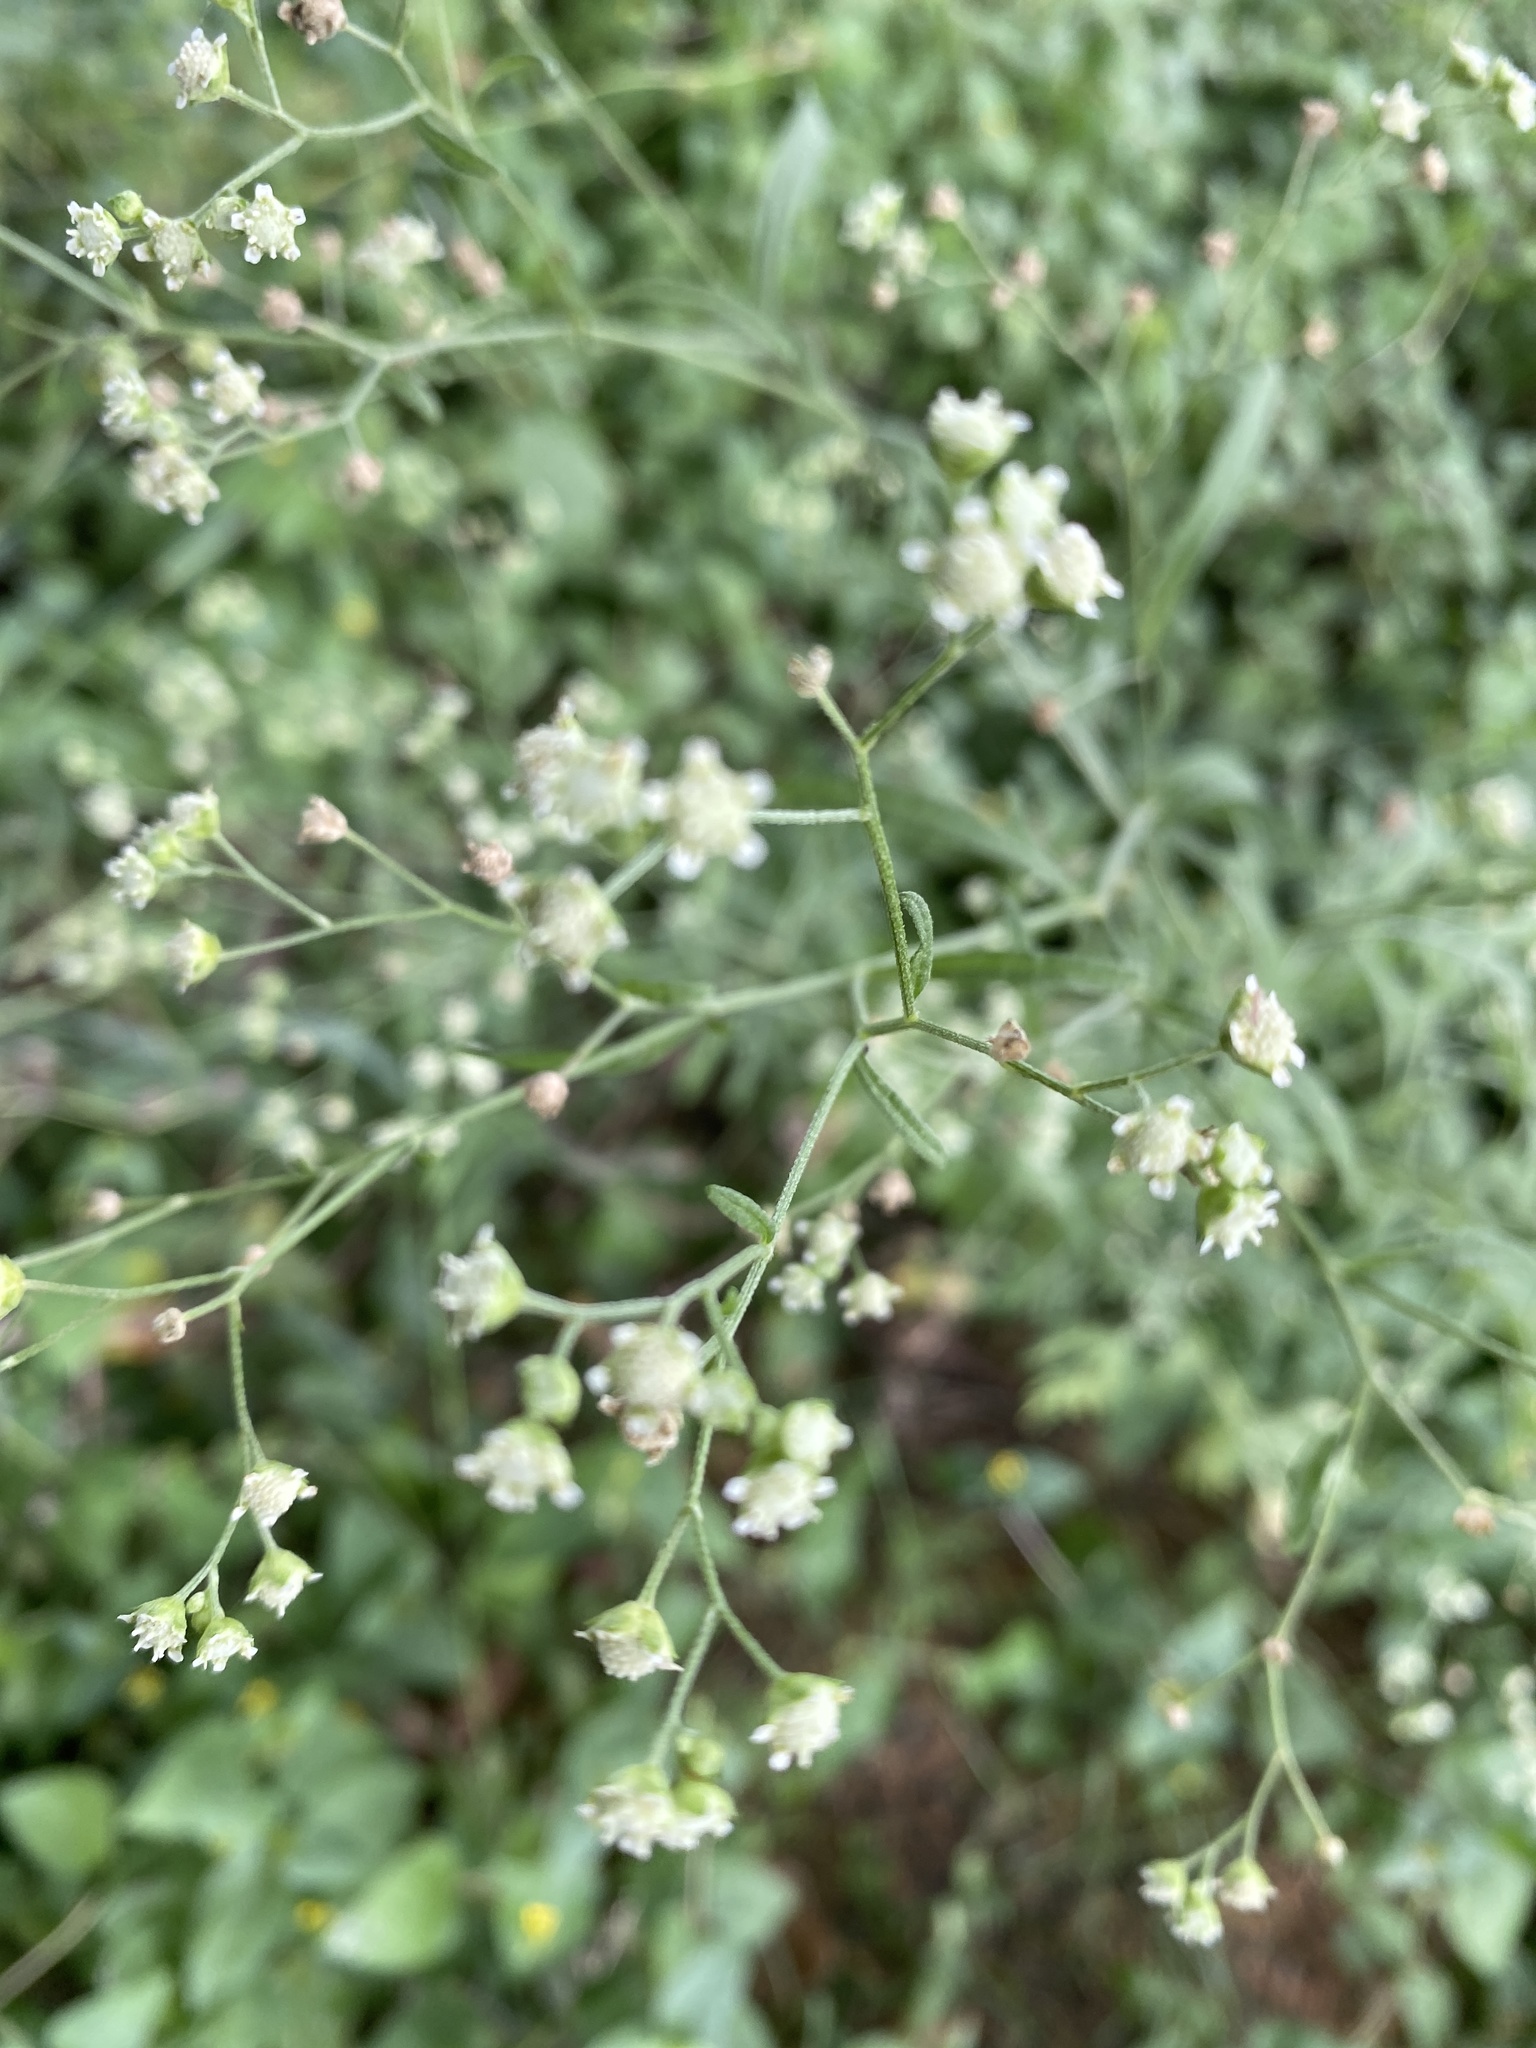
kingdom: Plantae
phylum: Tracheophyta
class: Magnoliopsida
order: Asterales
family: Asteraceae
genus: Parthenium
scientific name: Parthenium hysterophorus
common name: Santa maria feverfew
